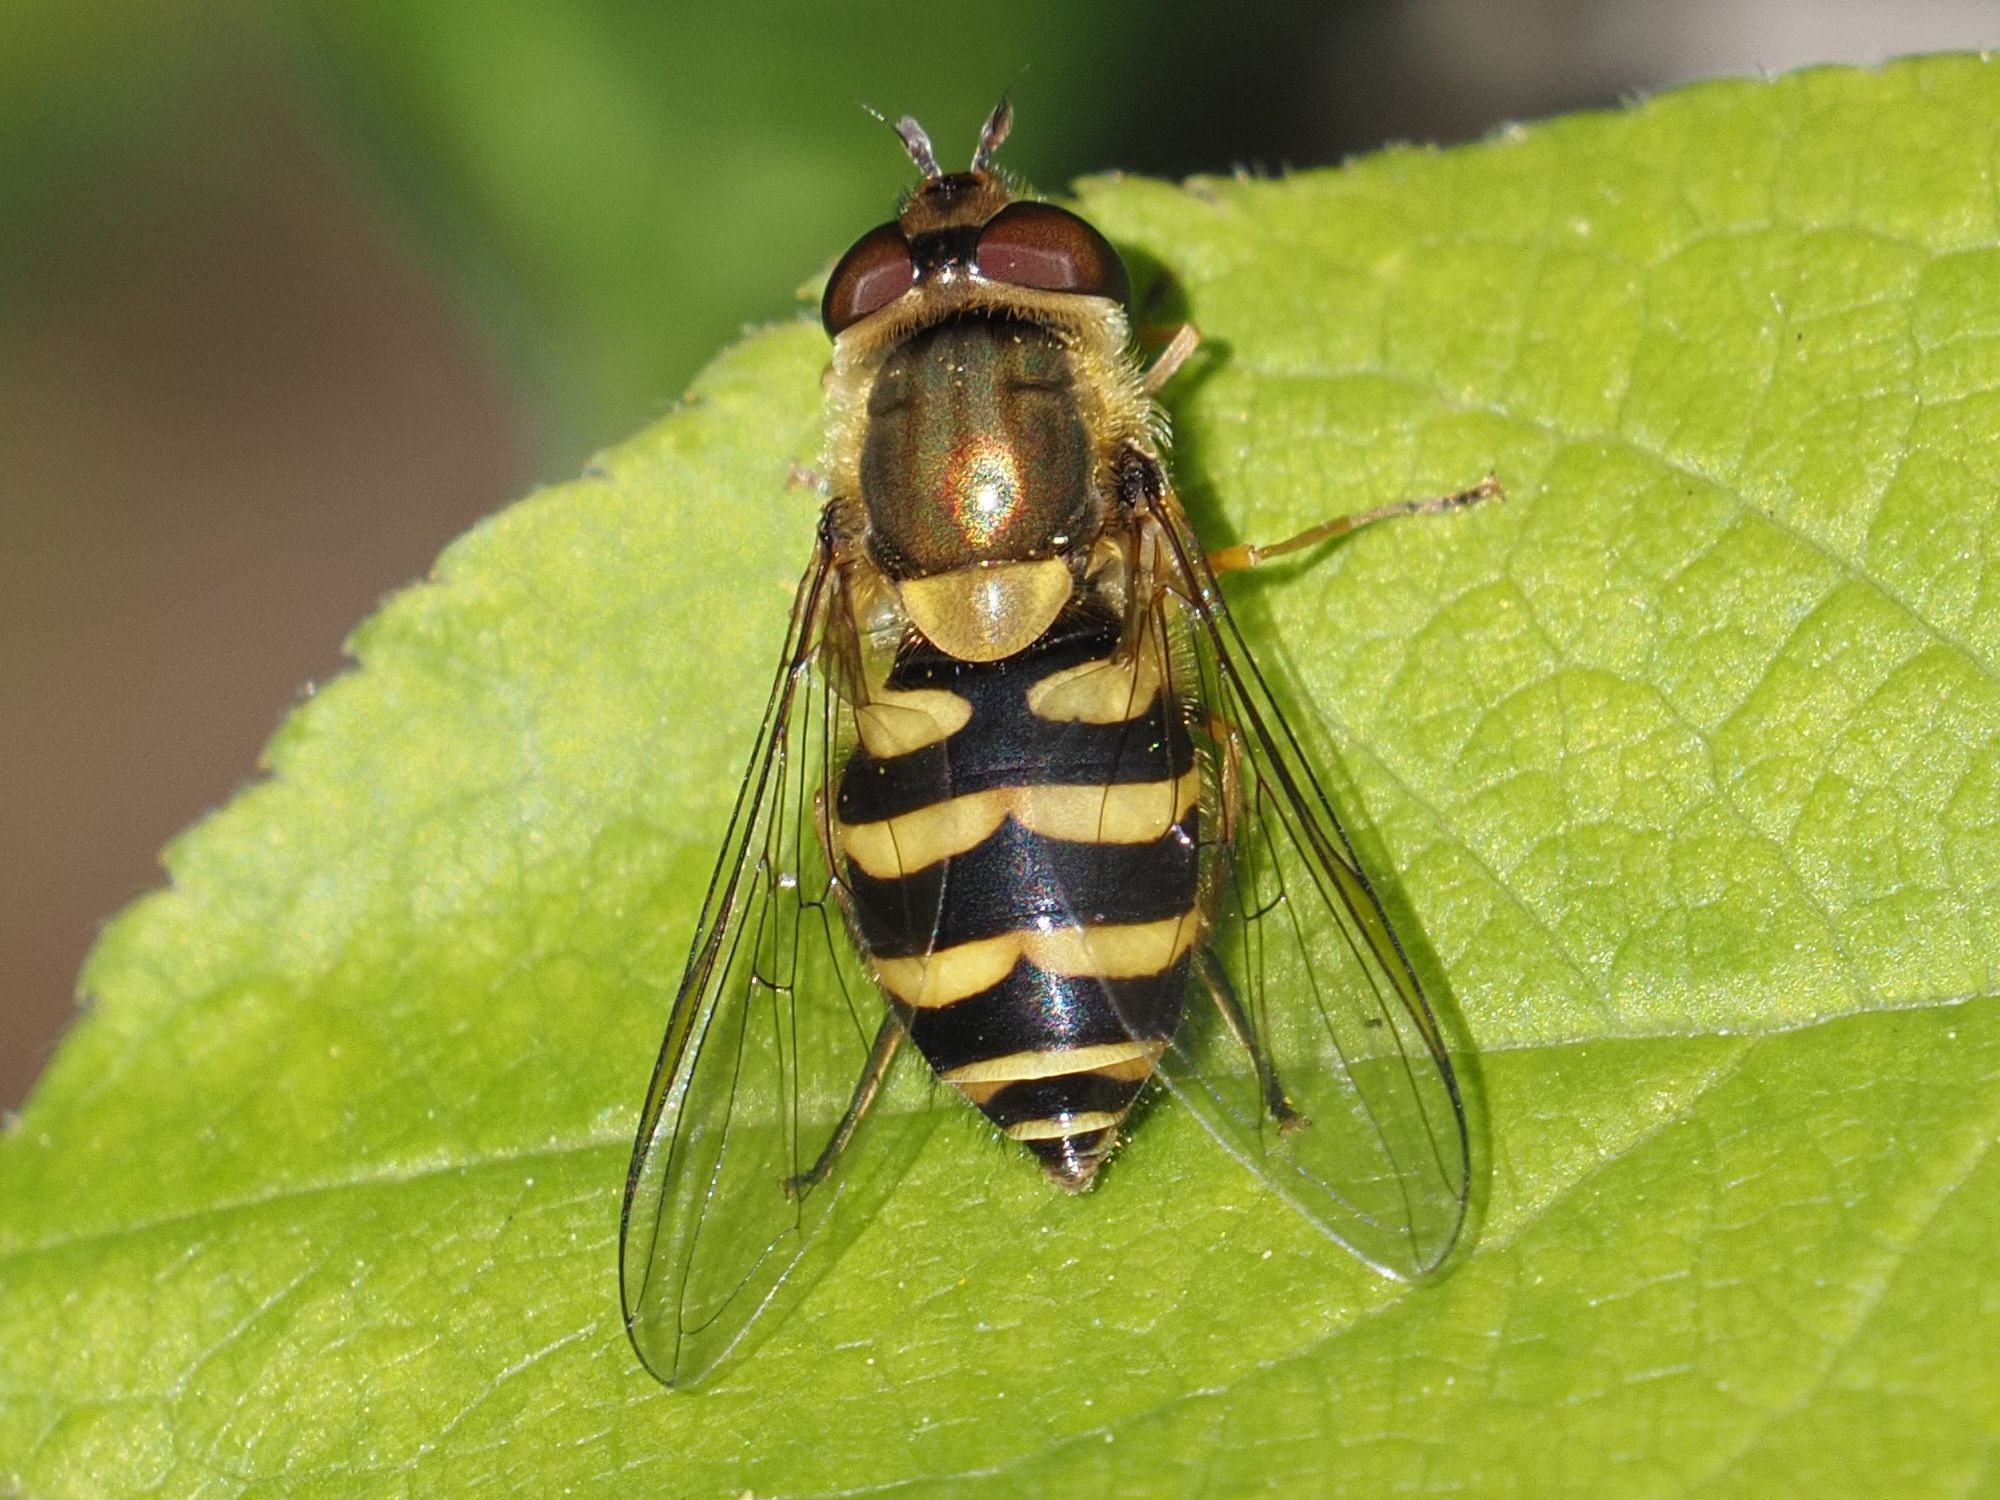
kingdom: Animalia
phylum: Arthropoda
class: Insecta
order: Diptera
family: Syrphidae
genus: Syrphus
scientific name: Syrphus
